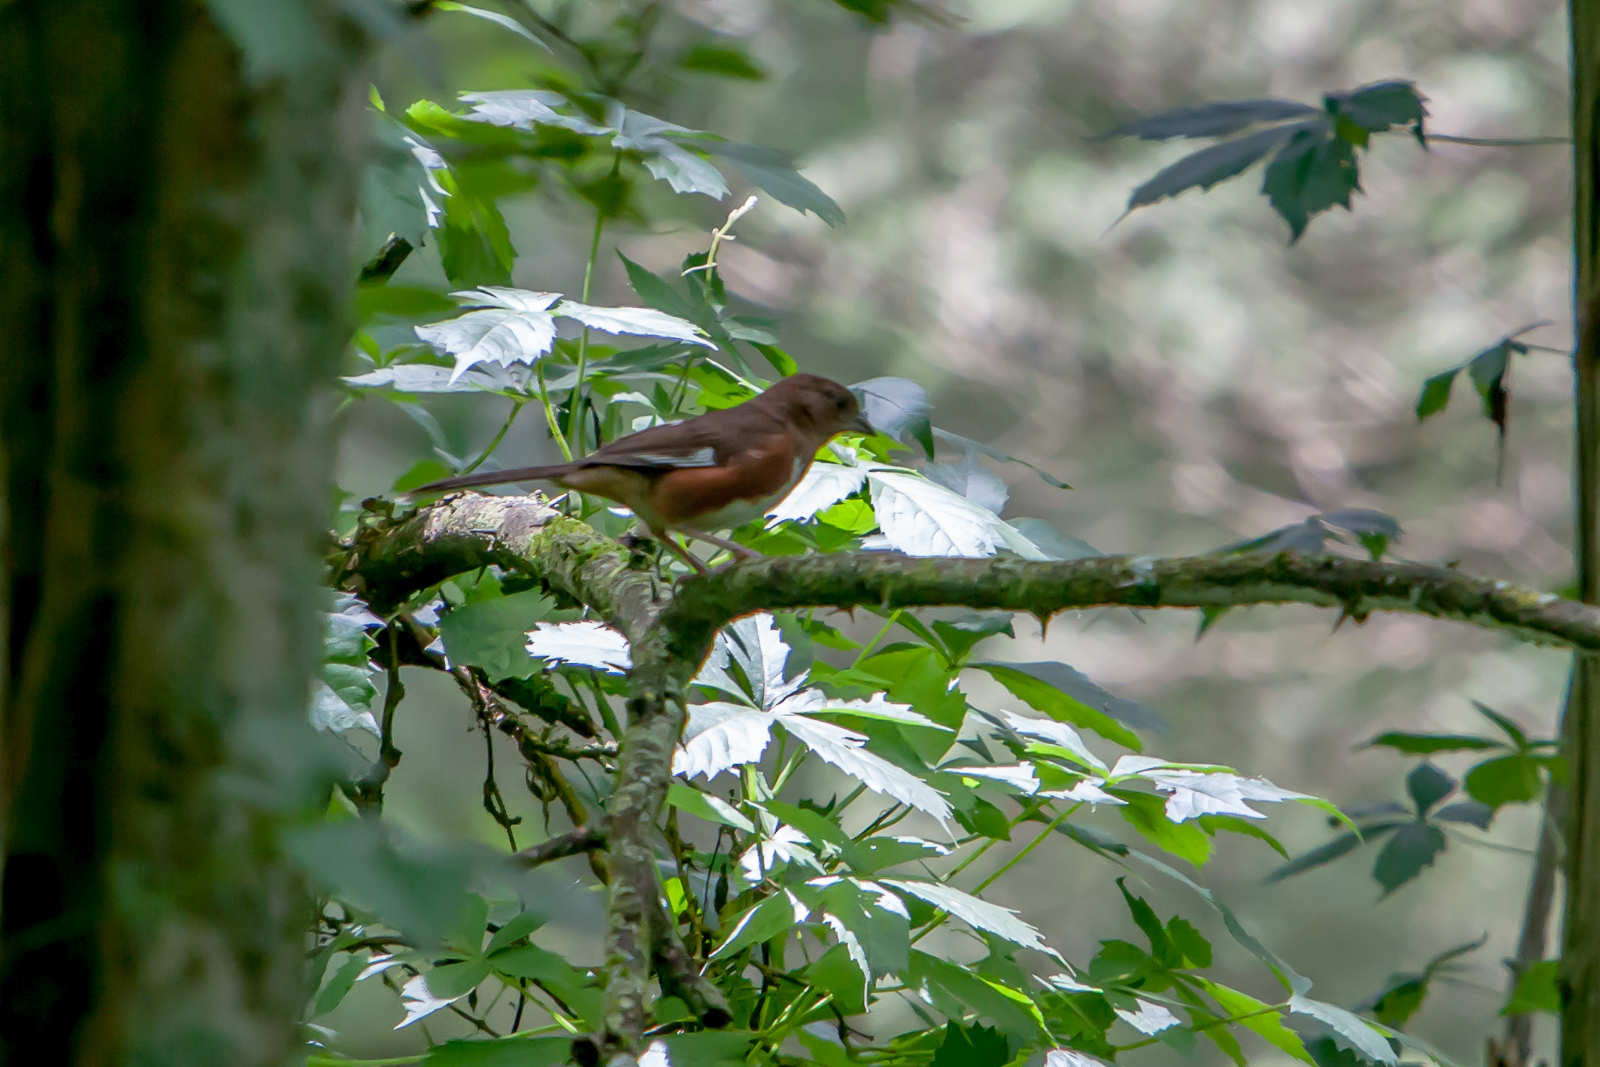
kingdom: Animalia
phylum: Chordata
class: Aves
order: Passeriformes
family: Passerellidae
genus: Pipilo
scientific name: Pipilo erythrophthalmus
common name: Eastern towhee
